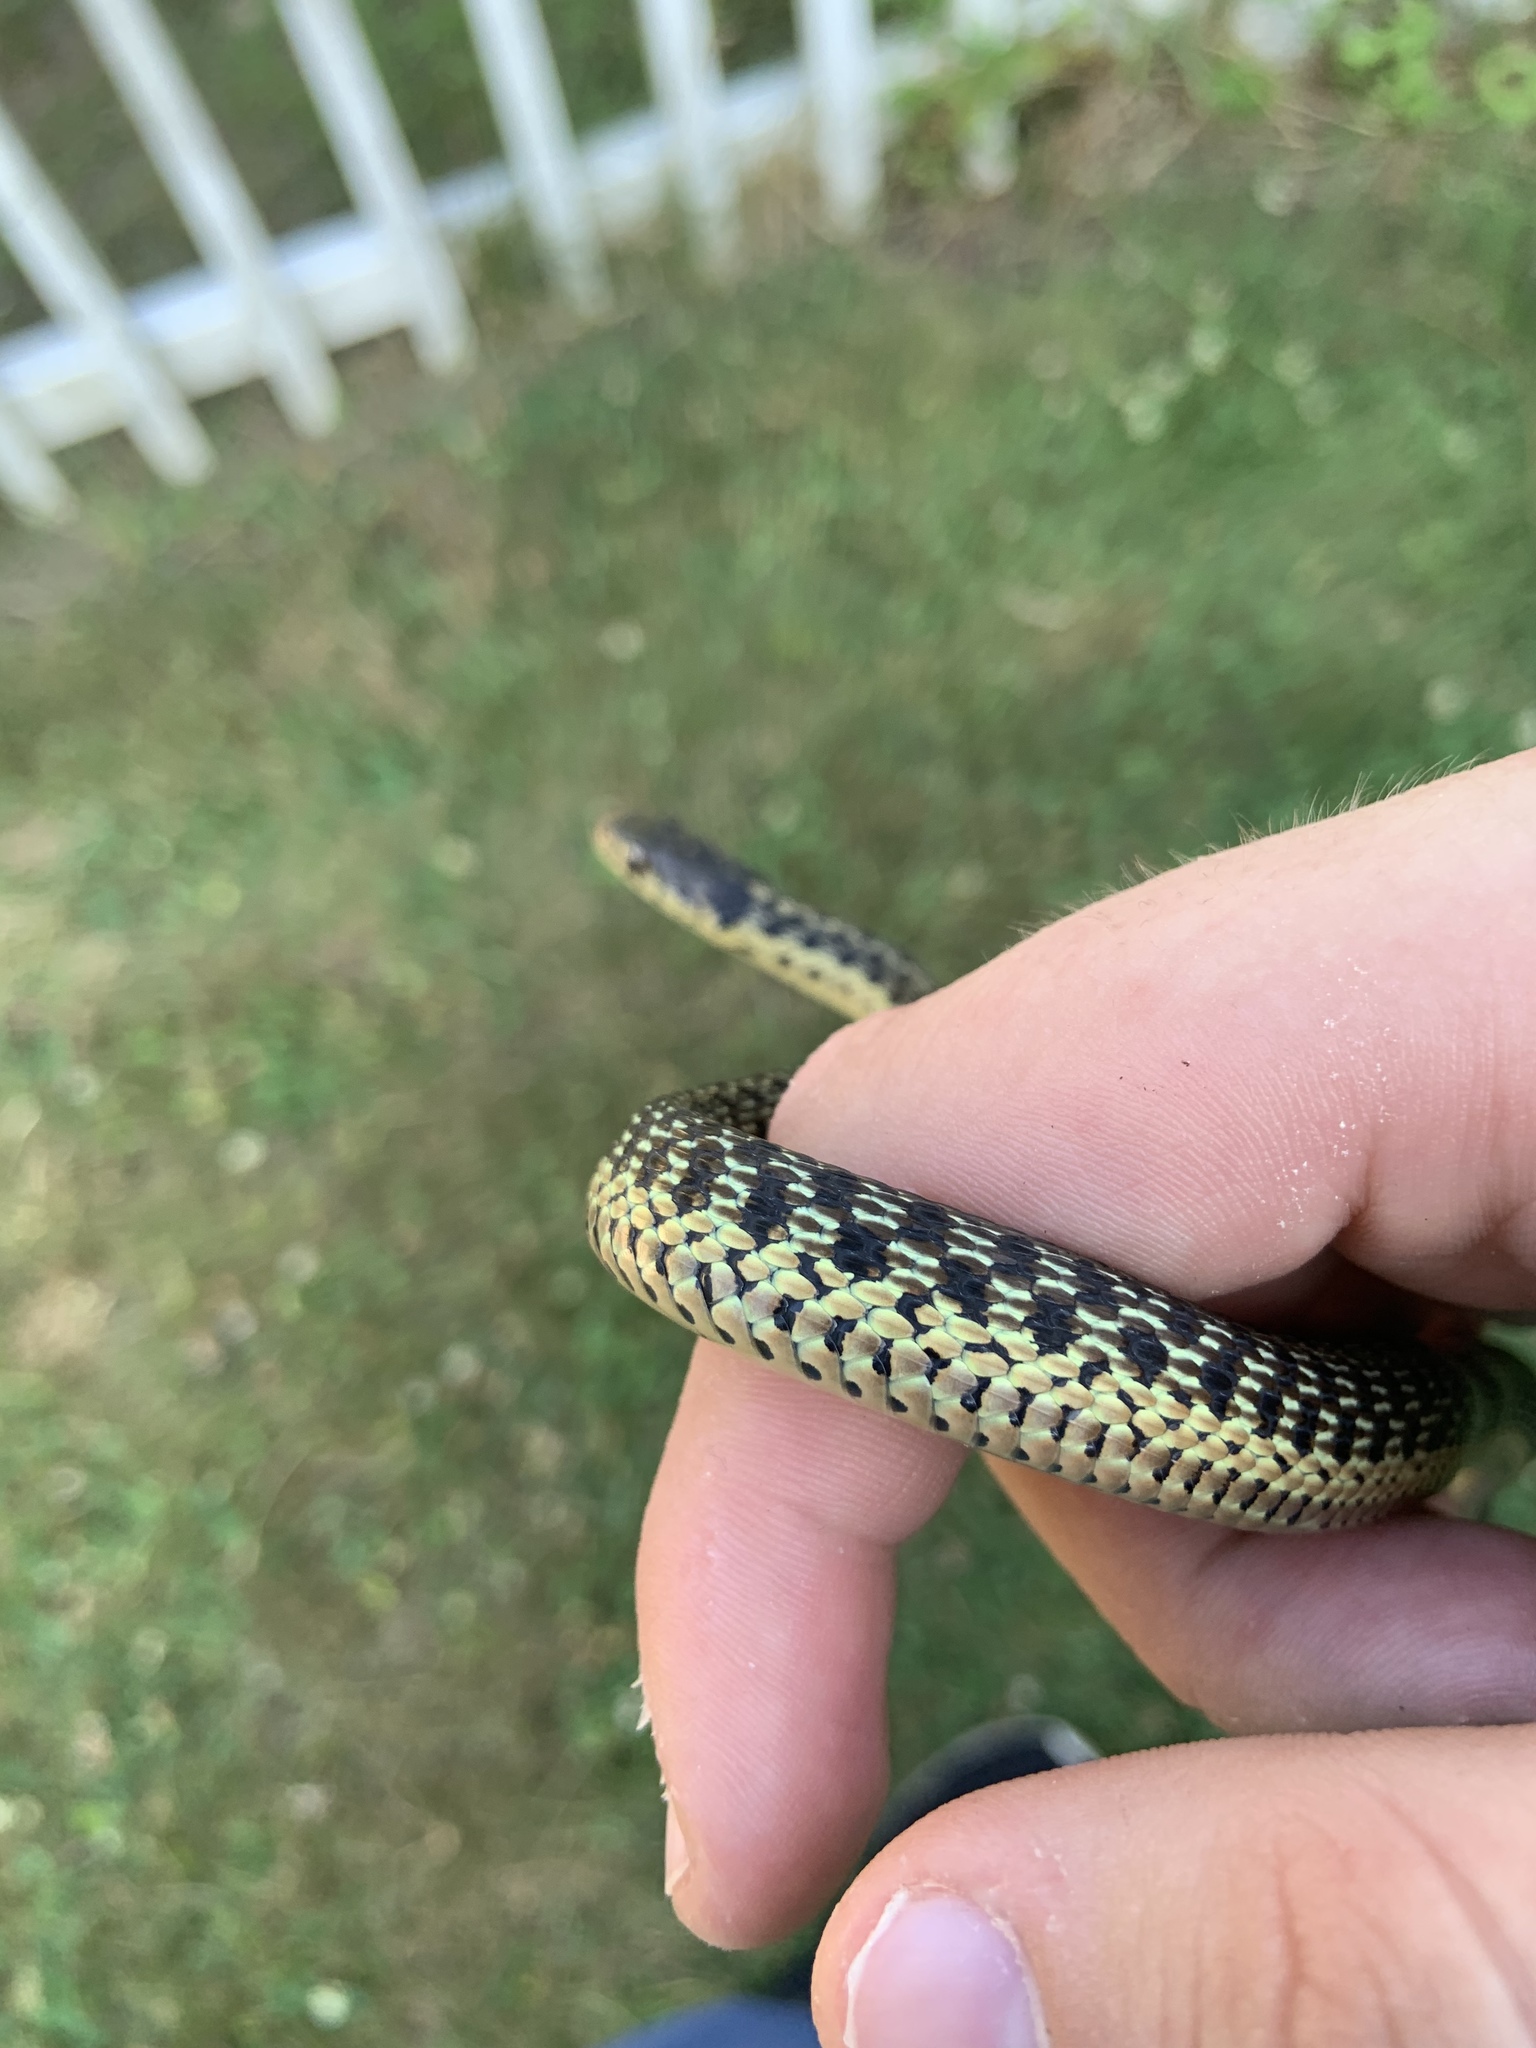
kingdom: Animalia
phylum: Chordata
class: Squamata
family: Colubridae
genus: Thamnophis
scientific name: Thamnophis sirtalis
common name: Common garter snake
